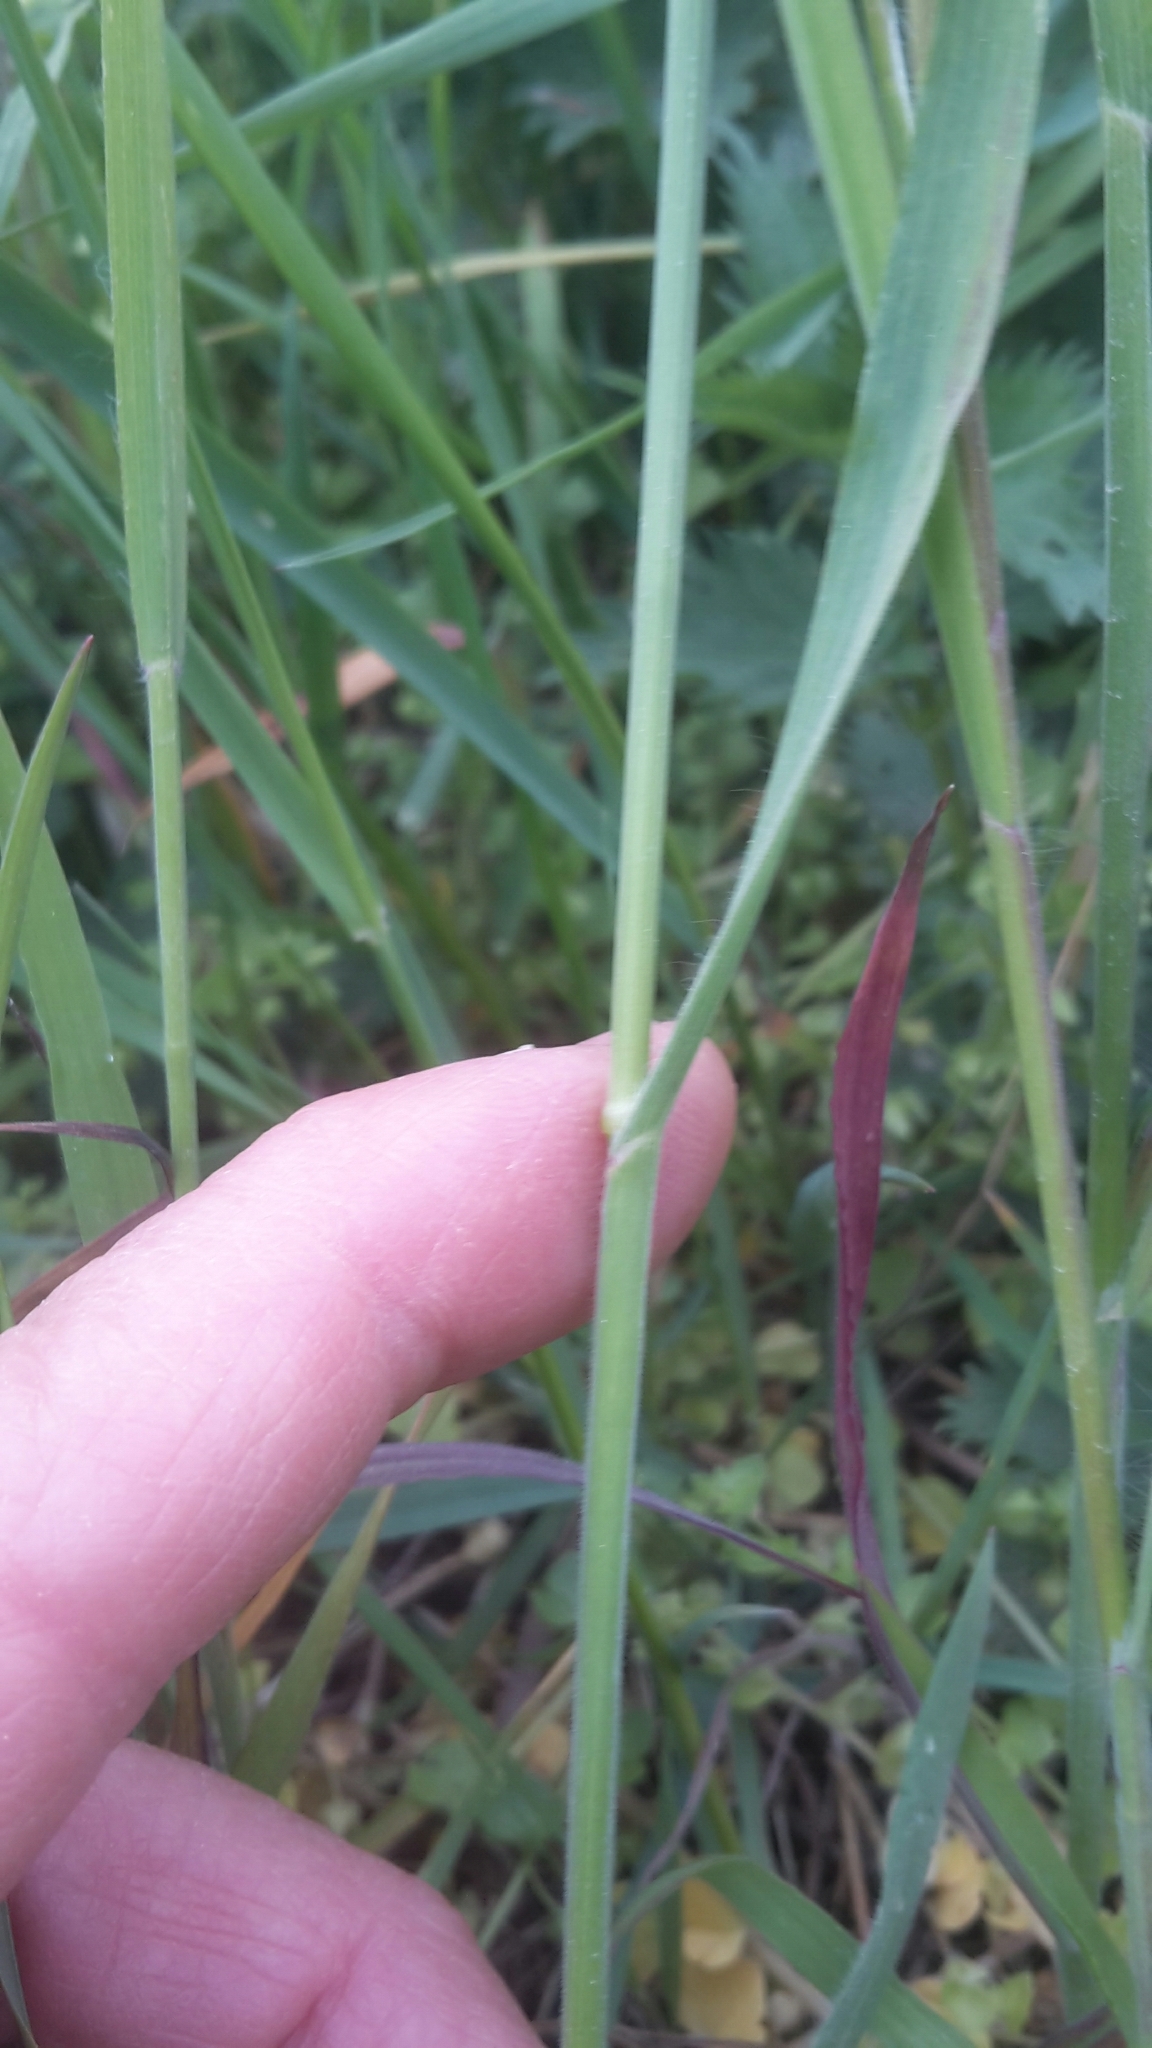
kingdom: Plantae
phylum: Tracheophyta
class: Liliopsida
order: Poales
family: Poaceae
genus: Bromus
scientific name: Bromus sterilis
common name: Poverty brome
